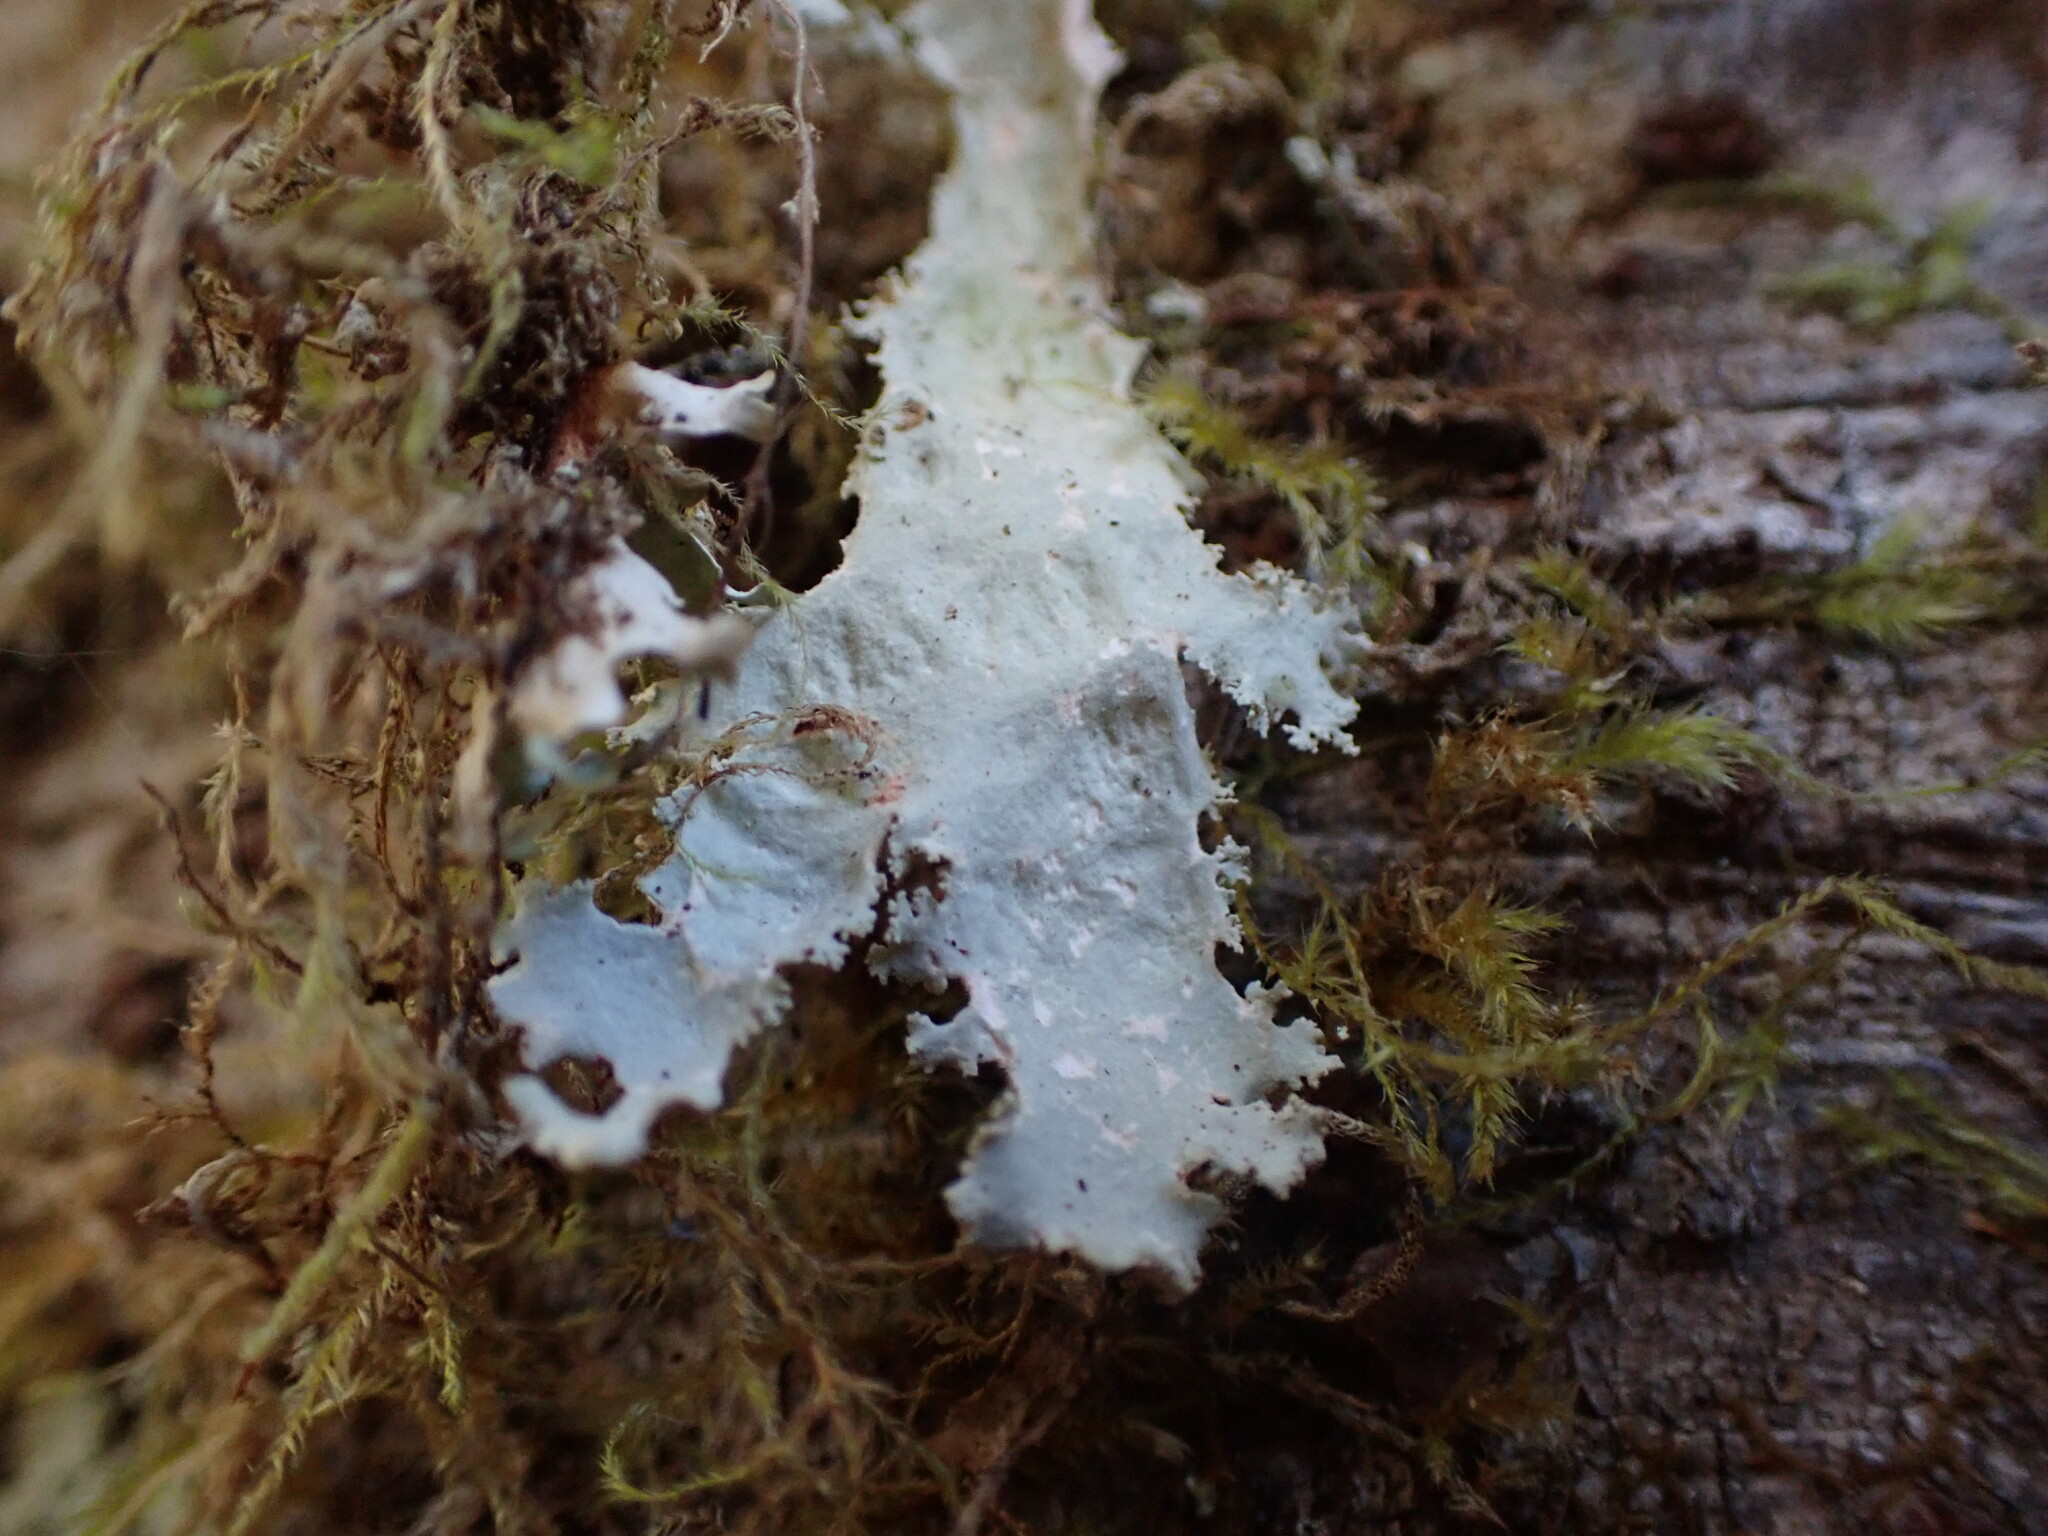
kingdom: Fungi
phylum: Ascomycota
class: Lecanoromycetes
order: Peltigerales
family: Lobariaceae
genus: Pseudocyphellaria
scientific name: Pseudocyphellaria rainierensis
